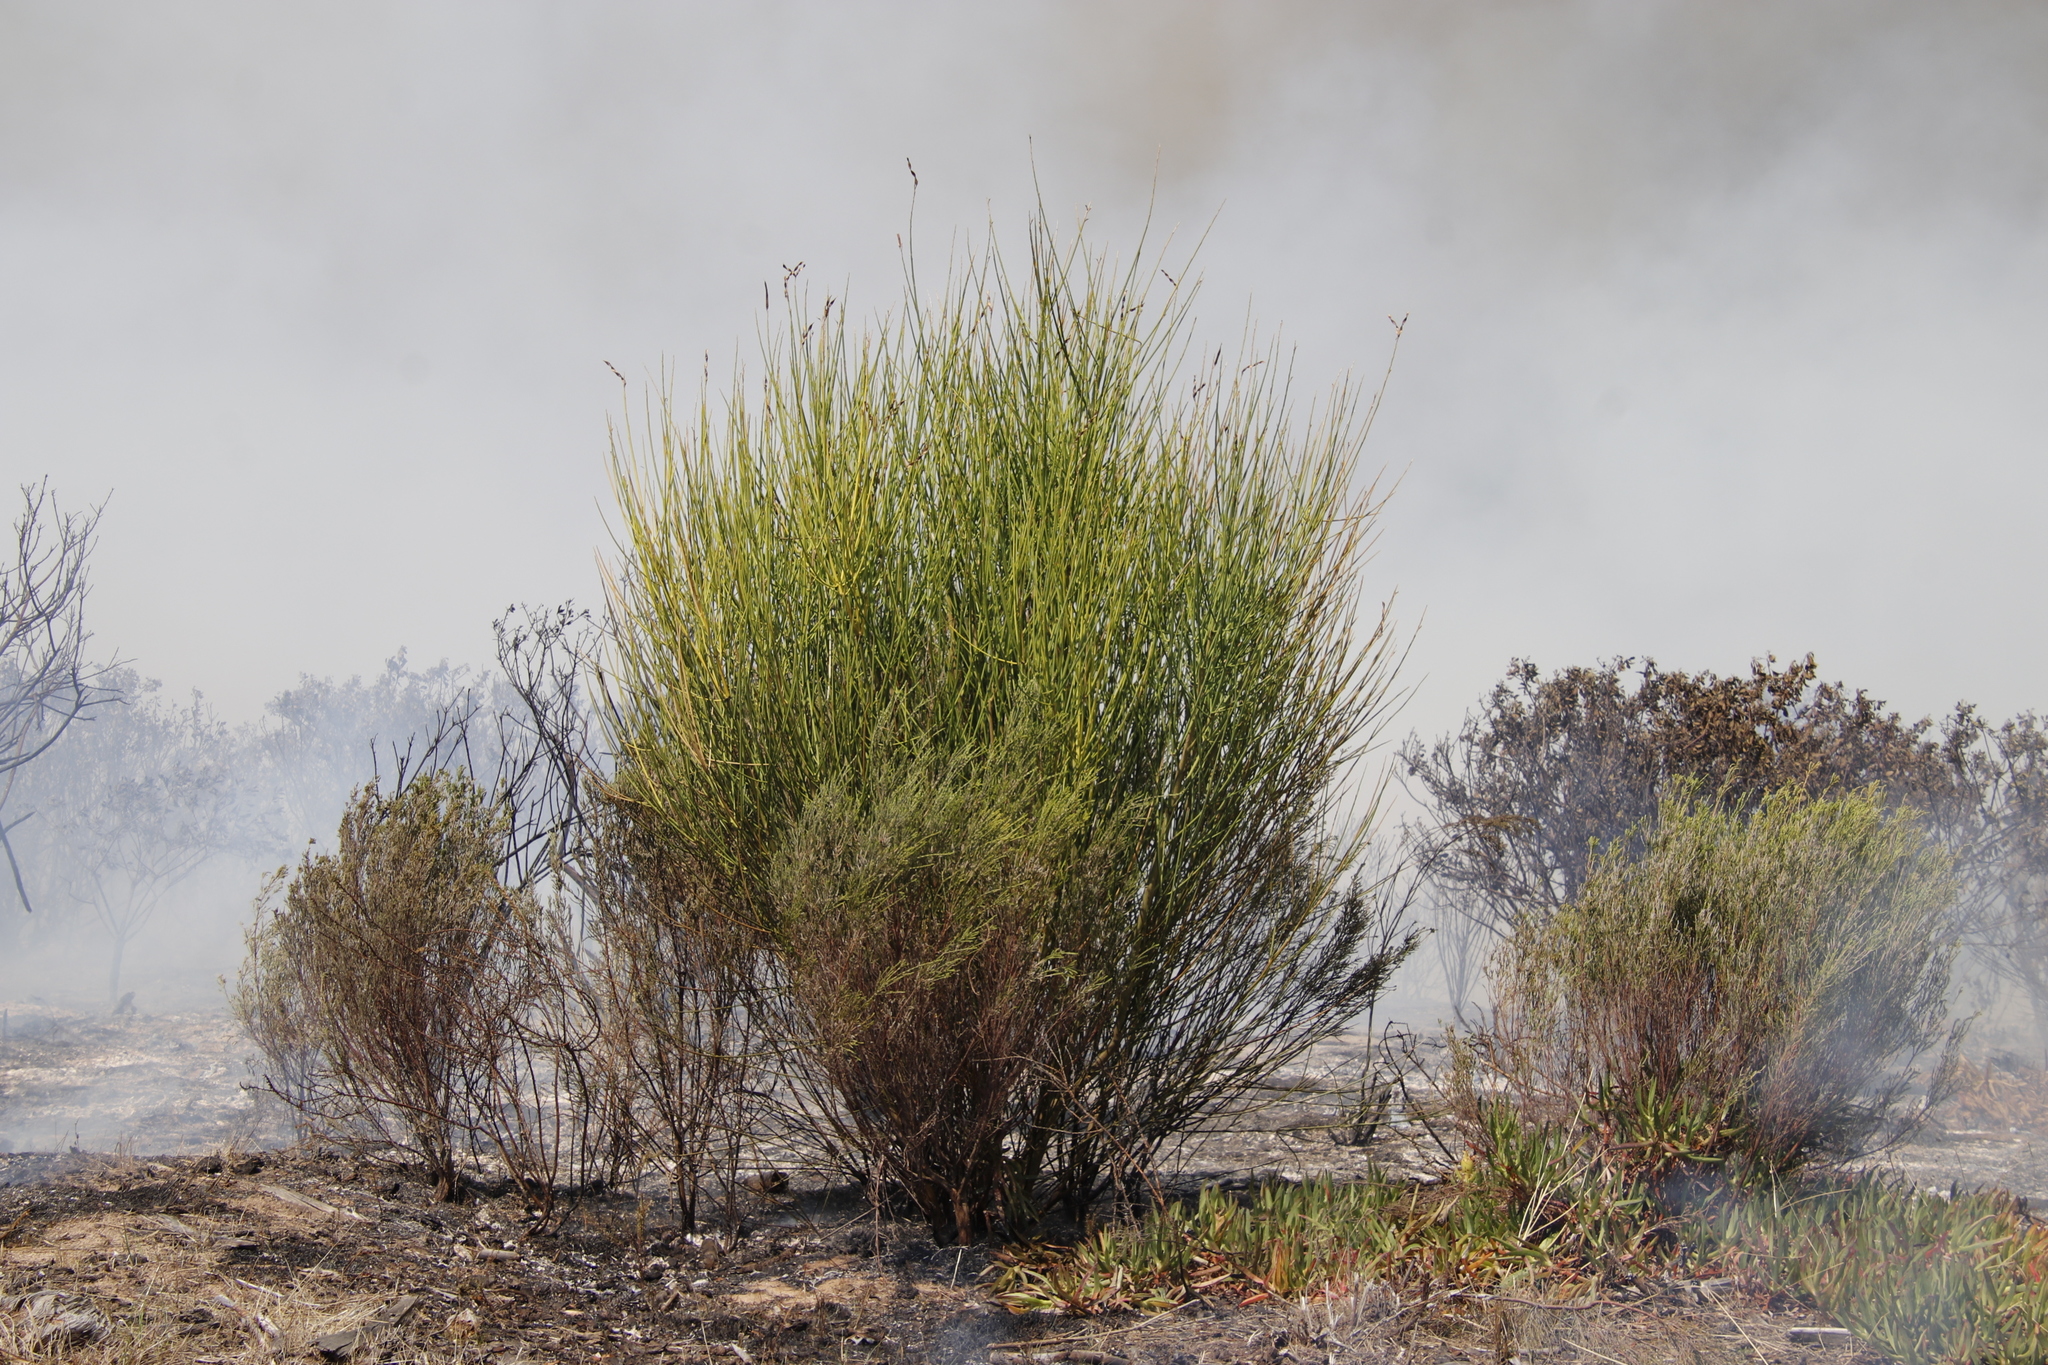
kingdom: Plantae
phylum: Tracheophyta
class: Magnoliopsida
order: Fabales
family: Fabaceae
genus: Spartium
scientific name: Spartium junceum
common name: Spanish broom
